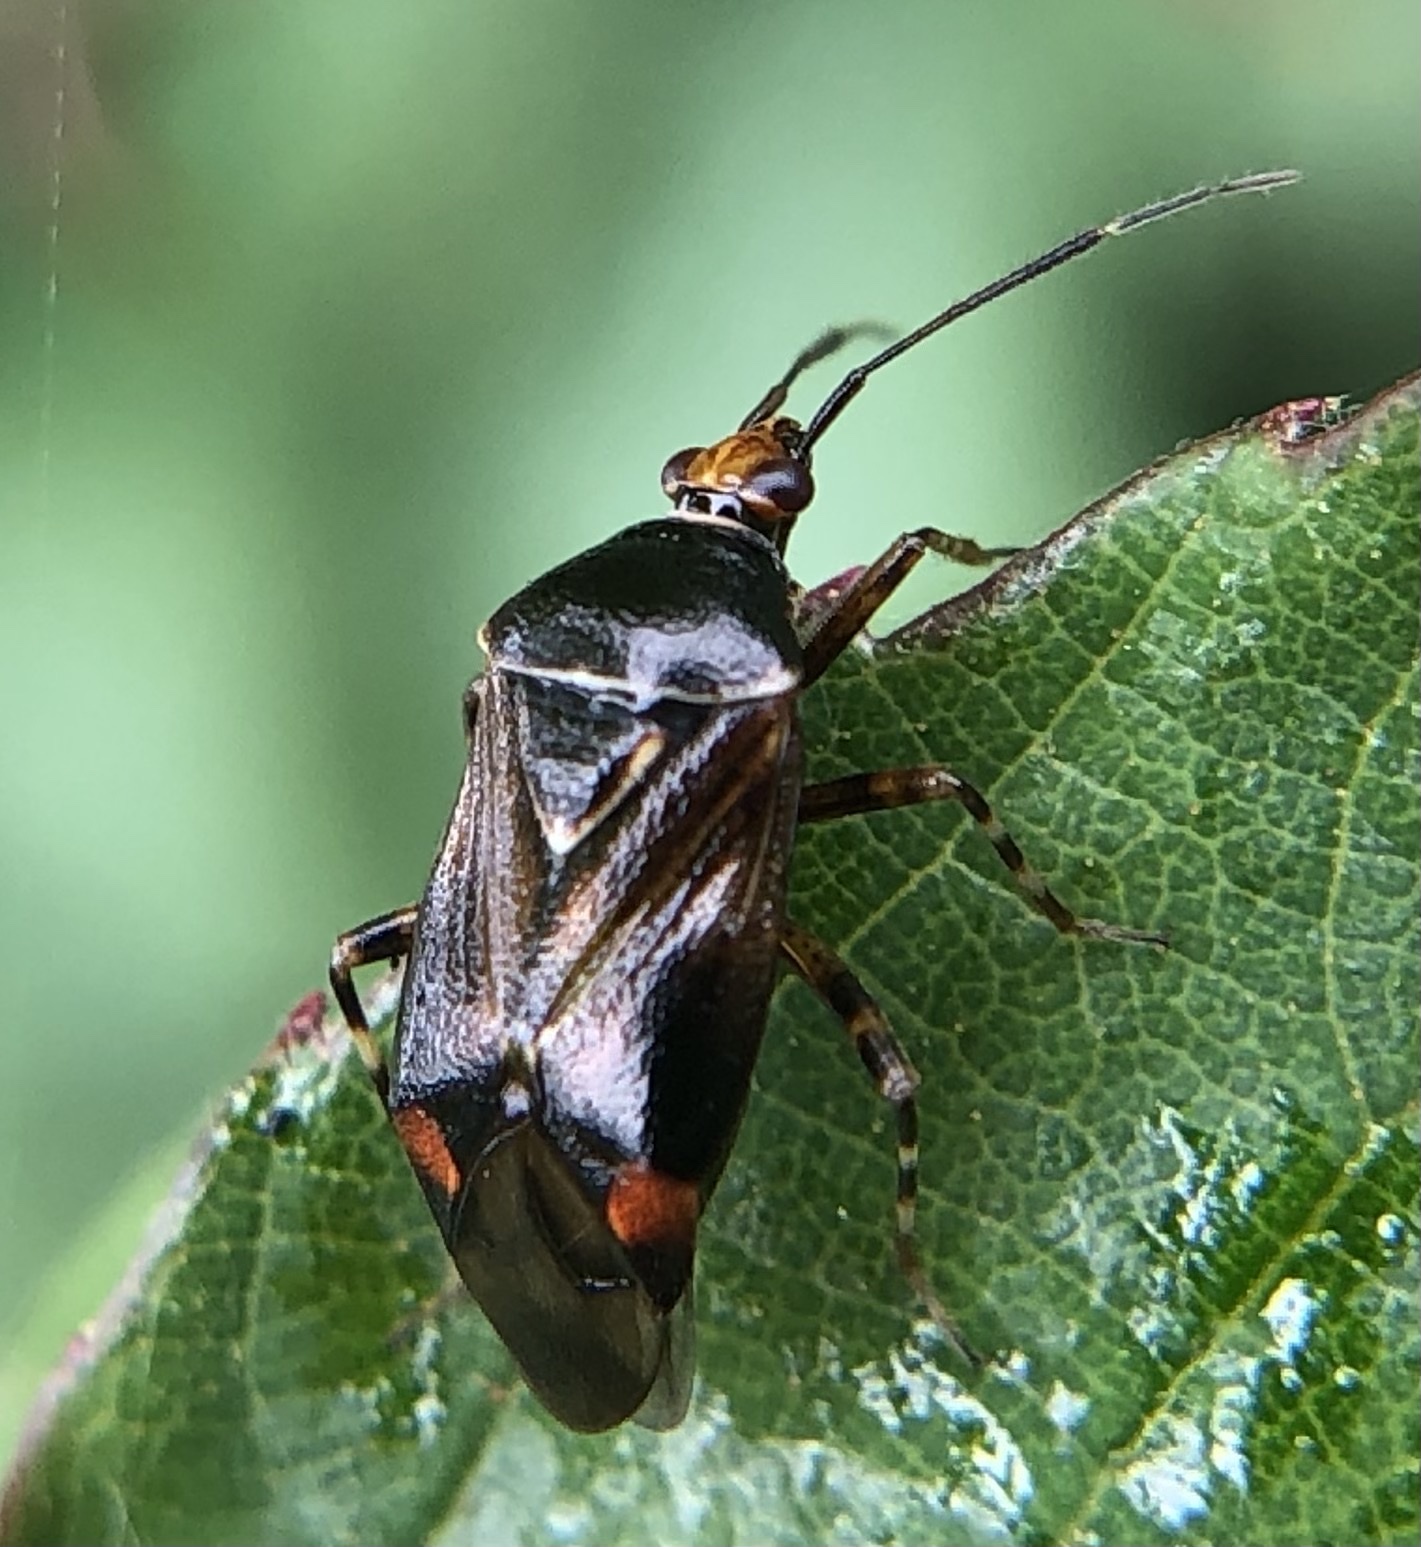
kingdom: Animalia
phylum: Arthropoda
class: Insecta
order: Hemiptera
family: Miridae
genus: Deraeocoris
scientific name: Deraeocoris flavilinea
